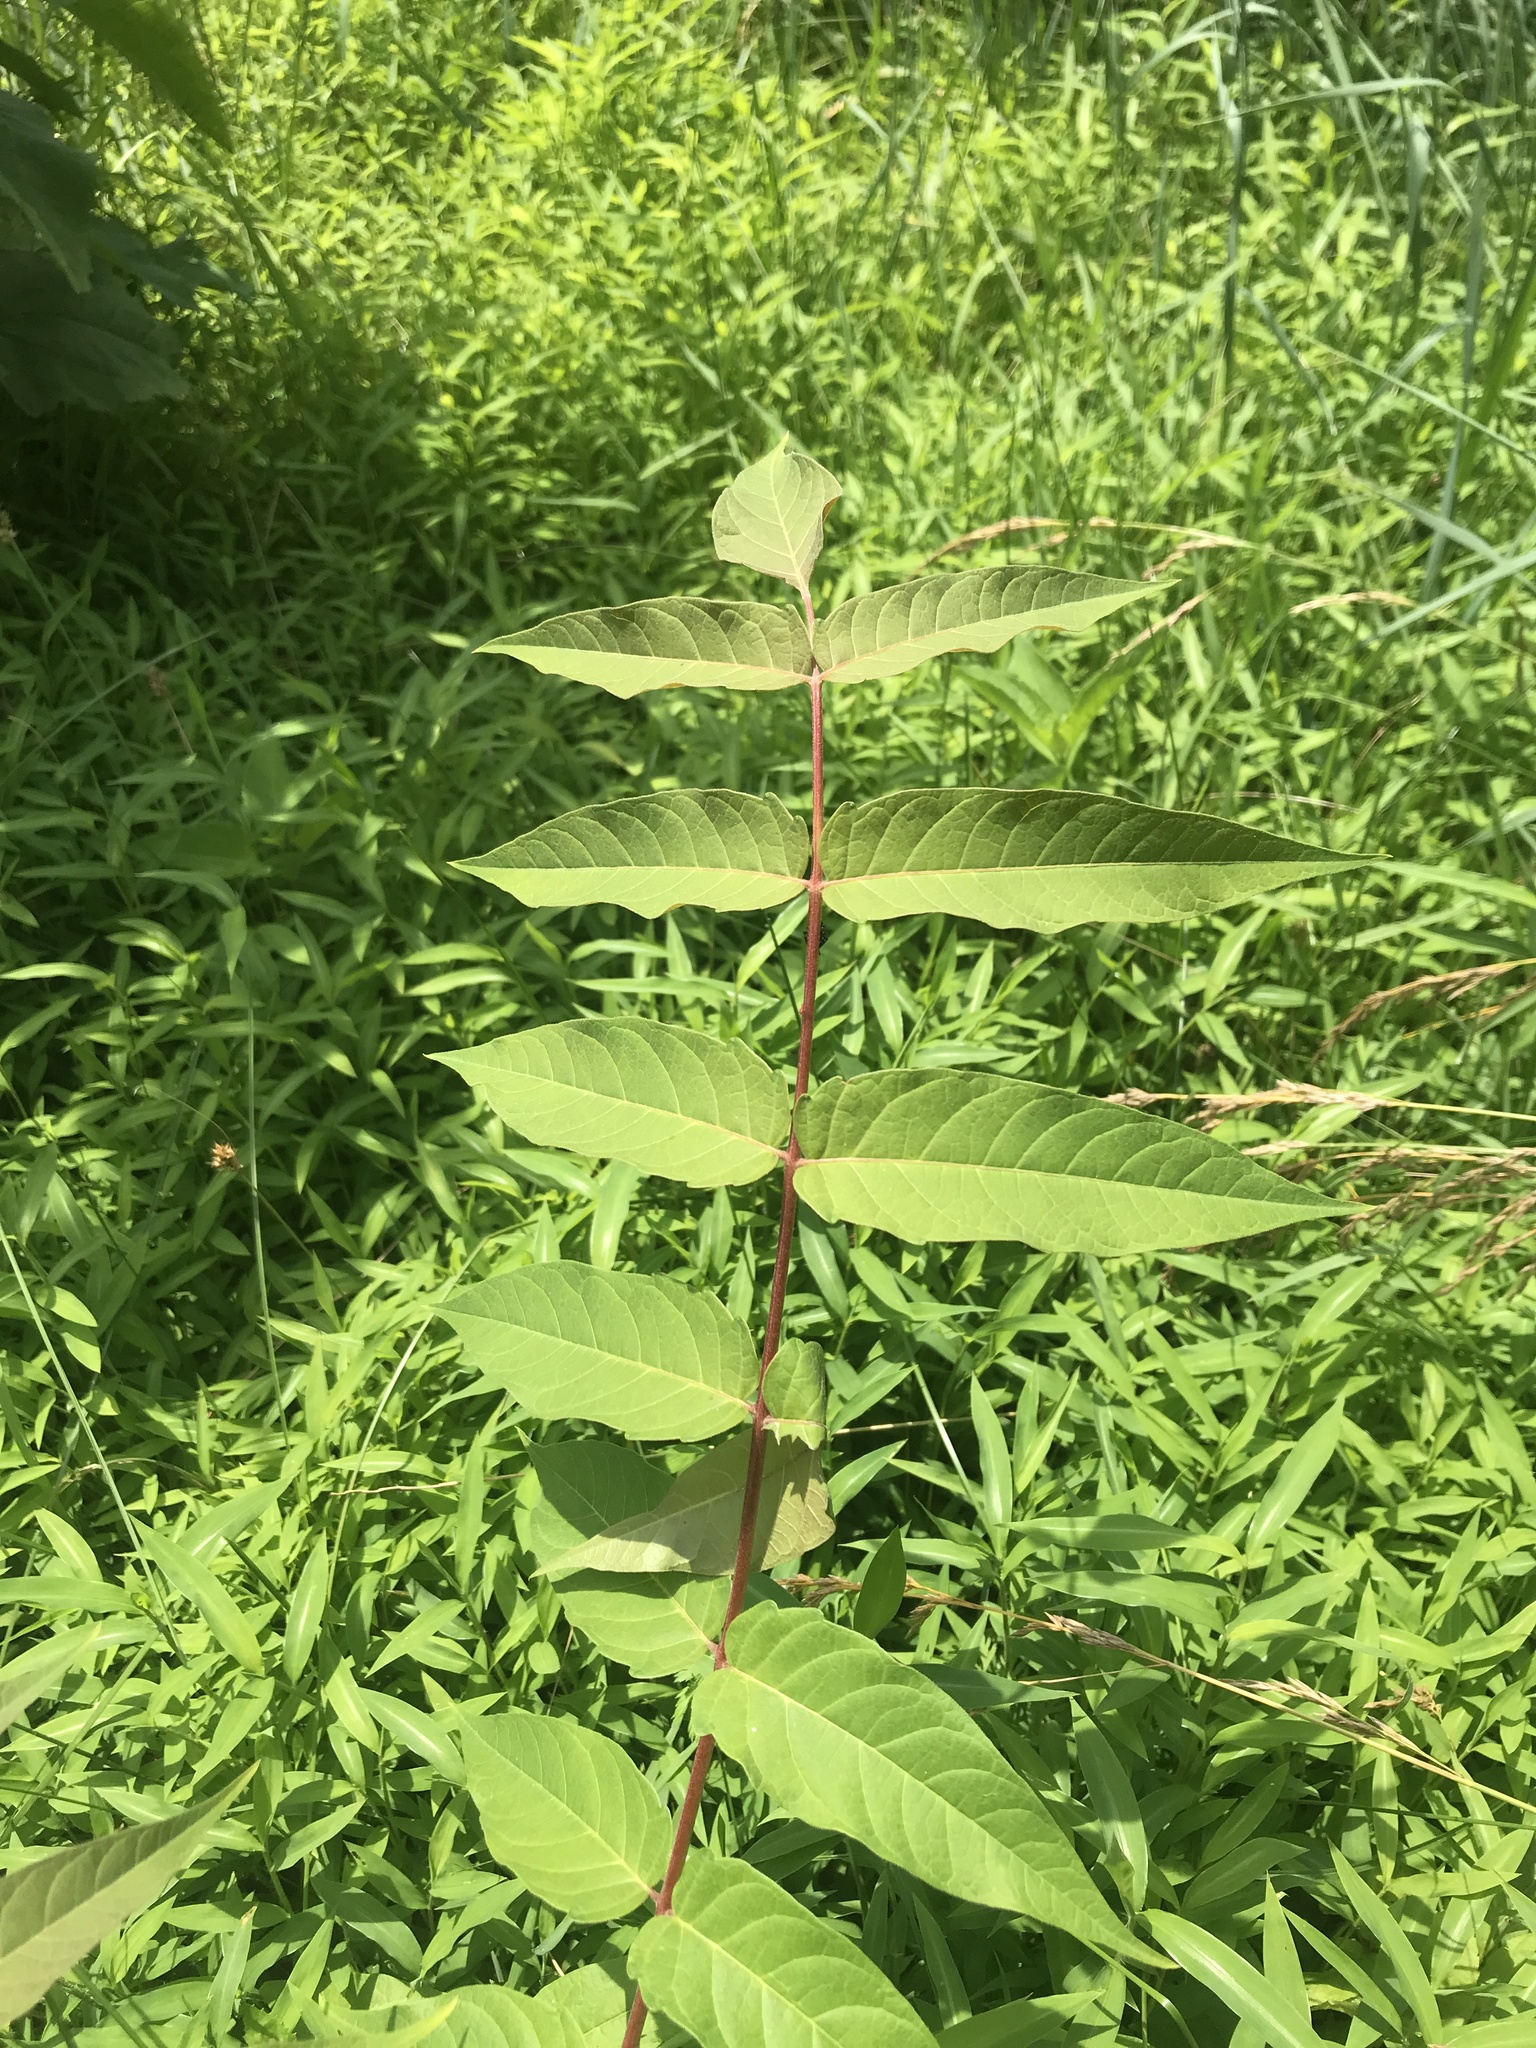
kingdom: Plantae
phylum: Tracheophyta
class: Magnoliopsida
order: Sapindales
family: Simaroubaceae
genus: Ailanthus
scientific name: Ailanthus altissima
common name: Tree-of-heaven
